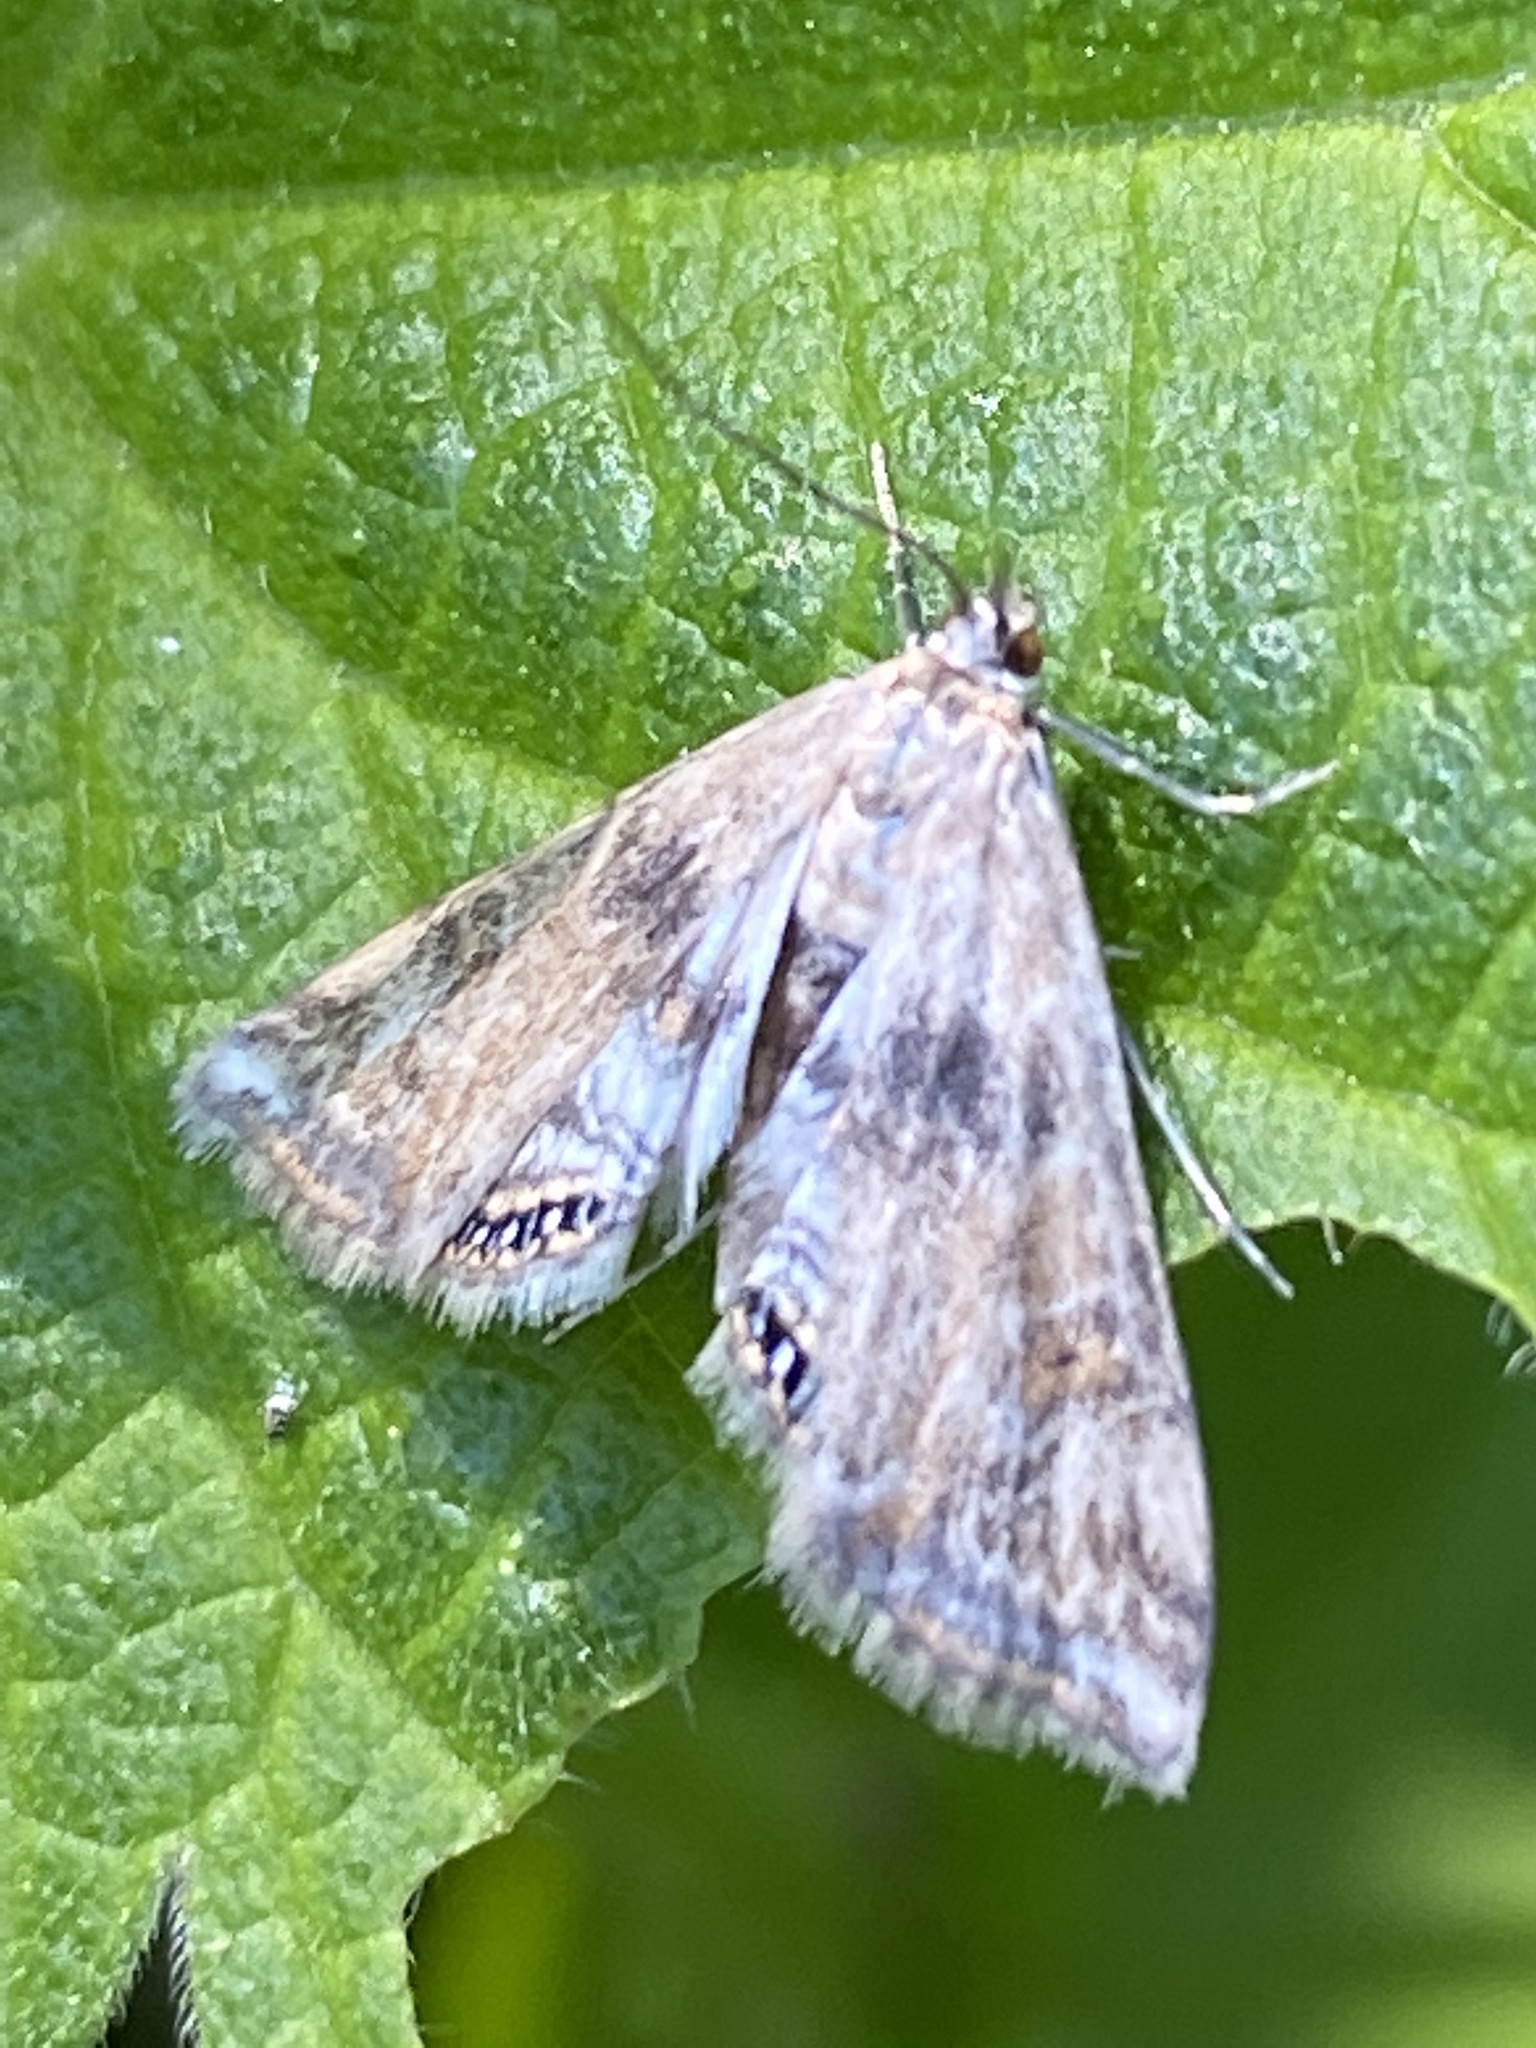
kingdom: Animalia
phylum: Arthropoda
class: Insecta
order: Lepidoptera
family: Crambidae
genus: Cataclysta
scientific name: Cataclysta lemnata
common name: Small china-mark
